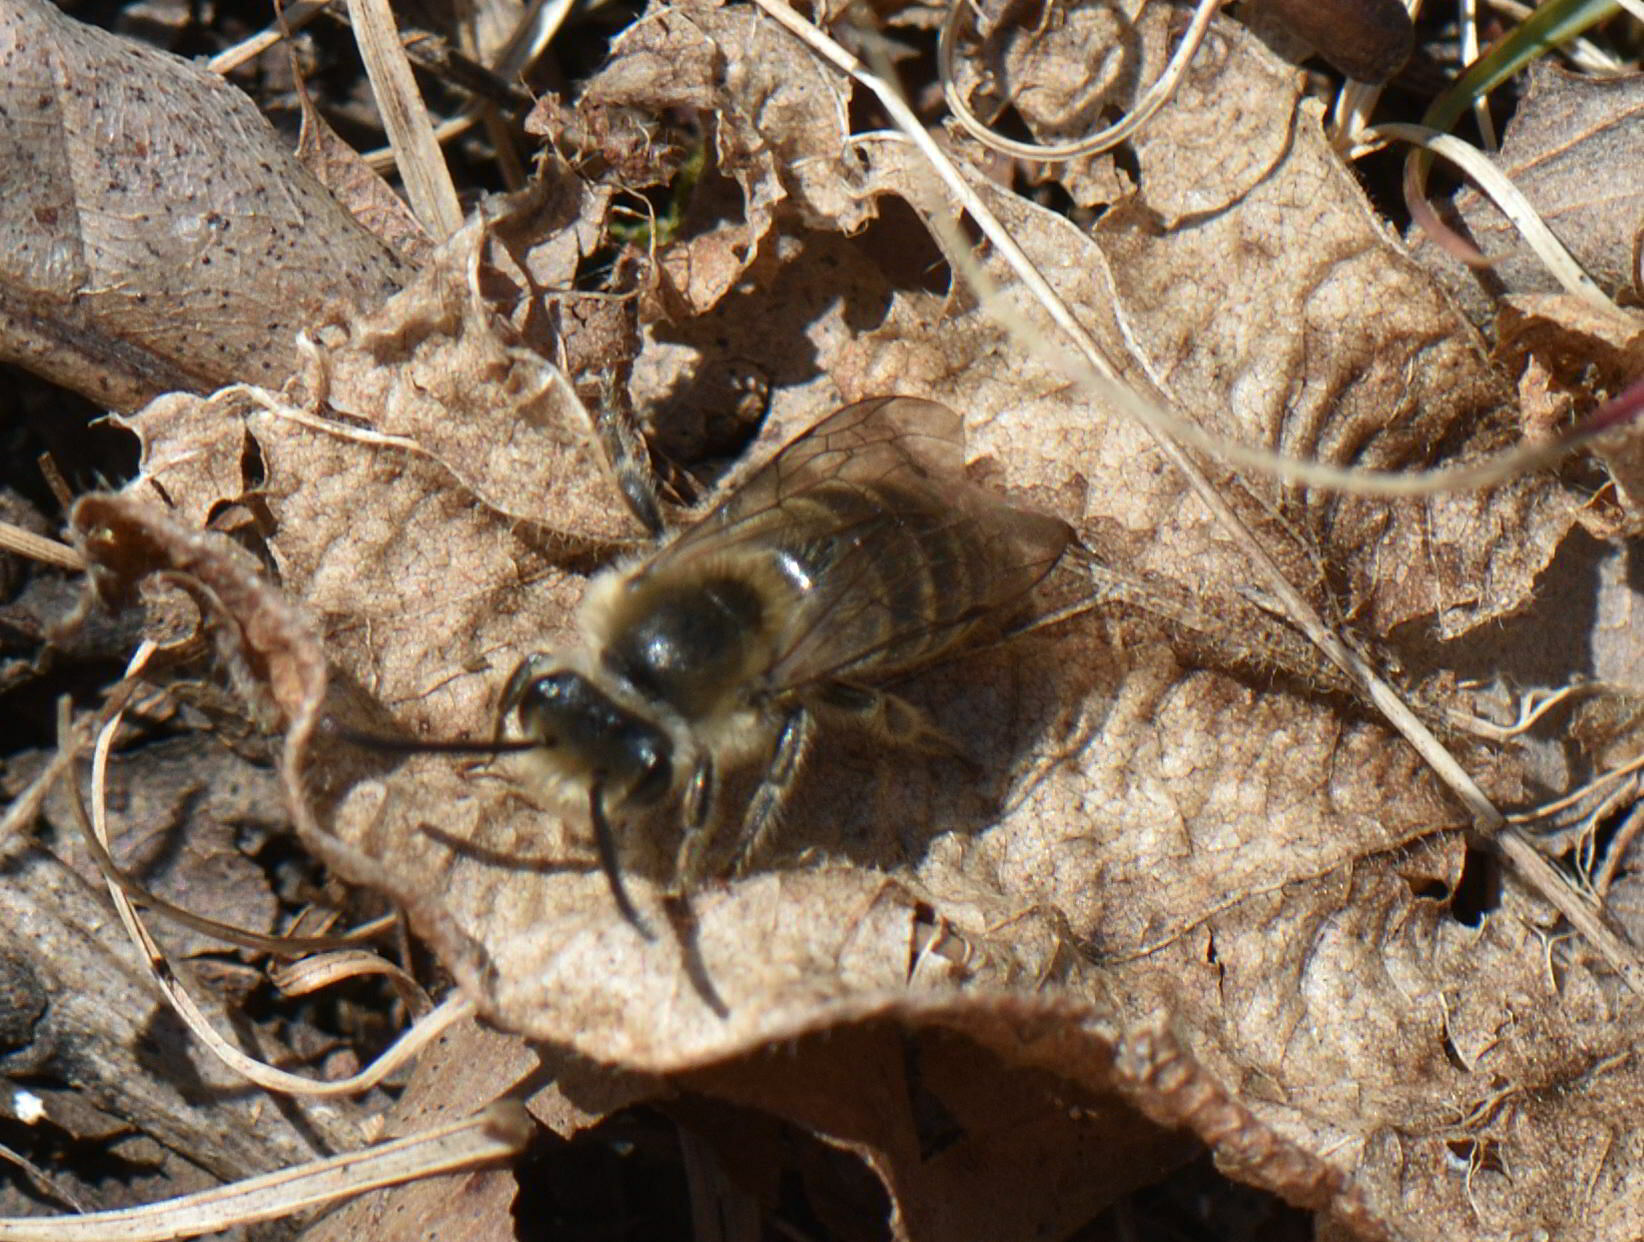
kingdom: Animalia
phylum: Arthropoda
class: Insecta
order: Hymenoptera
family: Colletidae
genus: Colletes
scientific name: Colletes inaequalis
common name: Unequal cellophane bee
